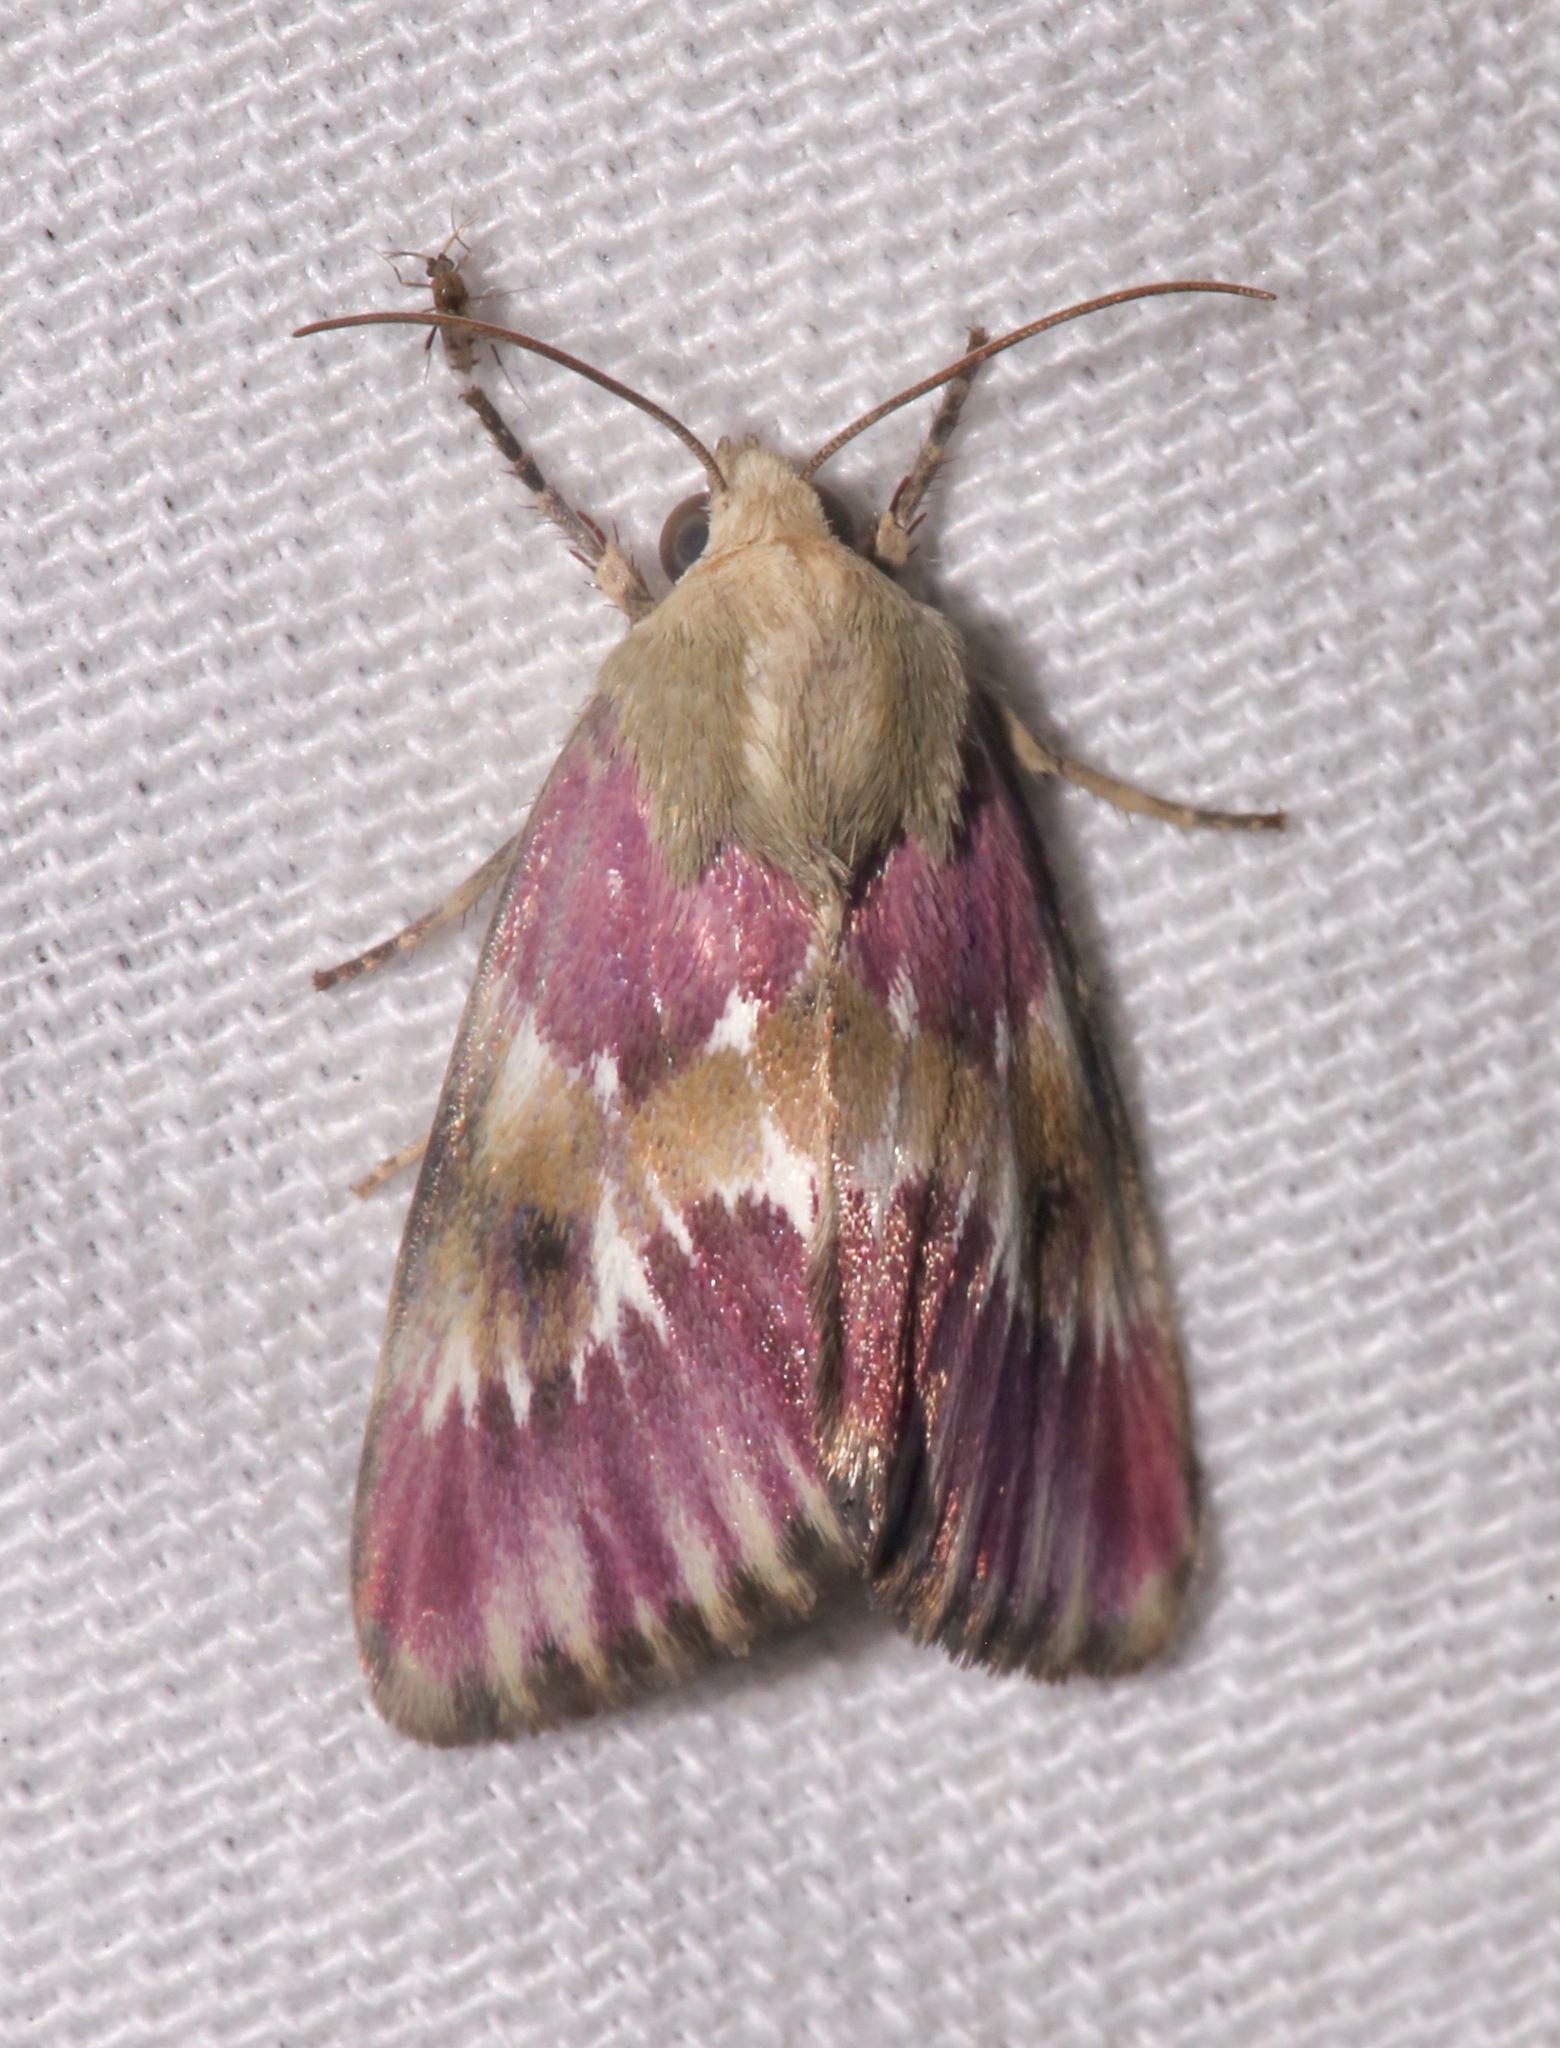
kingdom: Animalia
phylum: Arthropoda
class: Insecta
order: Lepidoptera
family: Noctuidae
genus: Schinia
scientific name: Schinia sanguinea
